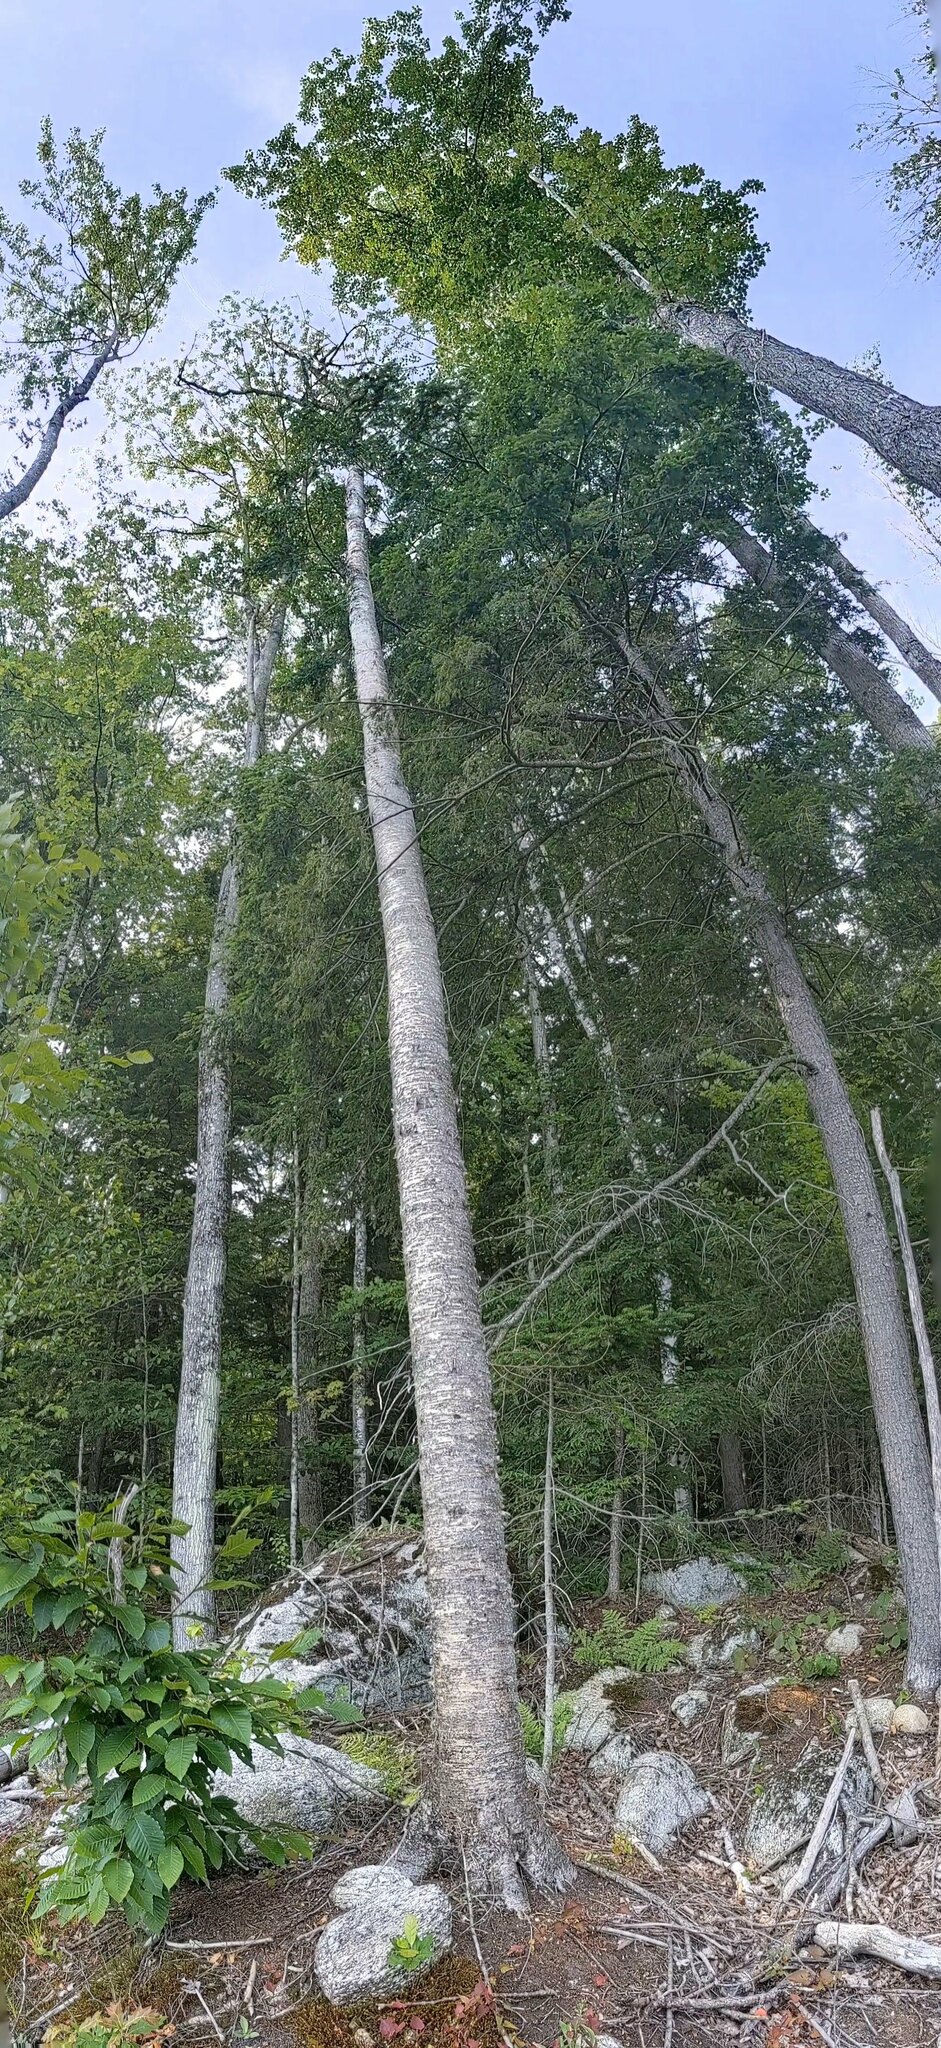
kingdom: Plantae
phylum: Tracheophyta
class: Magnoliopsida
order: Fagales
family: Betulaceae
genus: Betula
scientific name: Betula alleghaniensis
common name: Yellow birch
